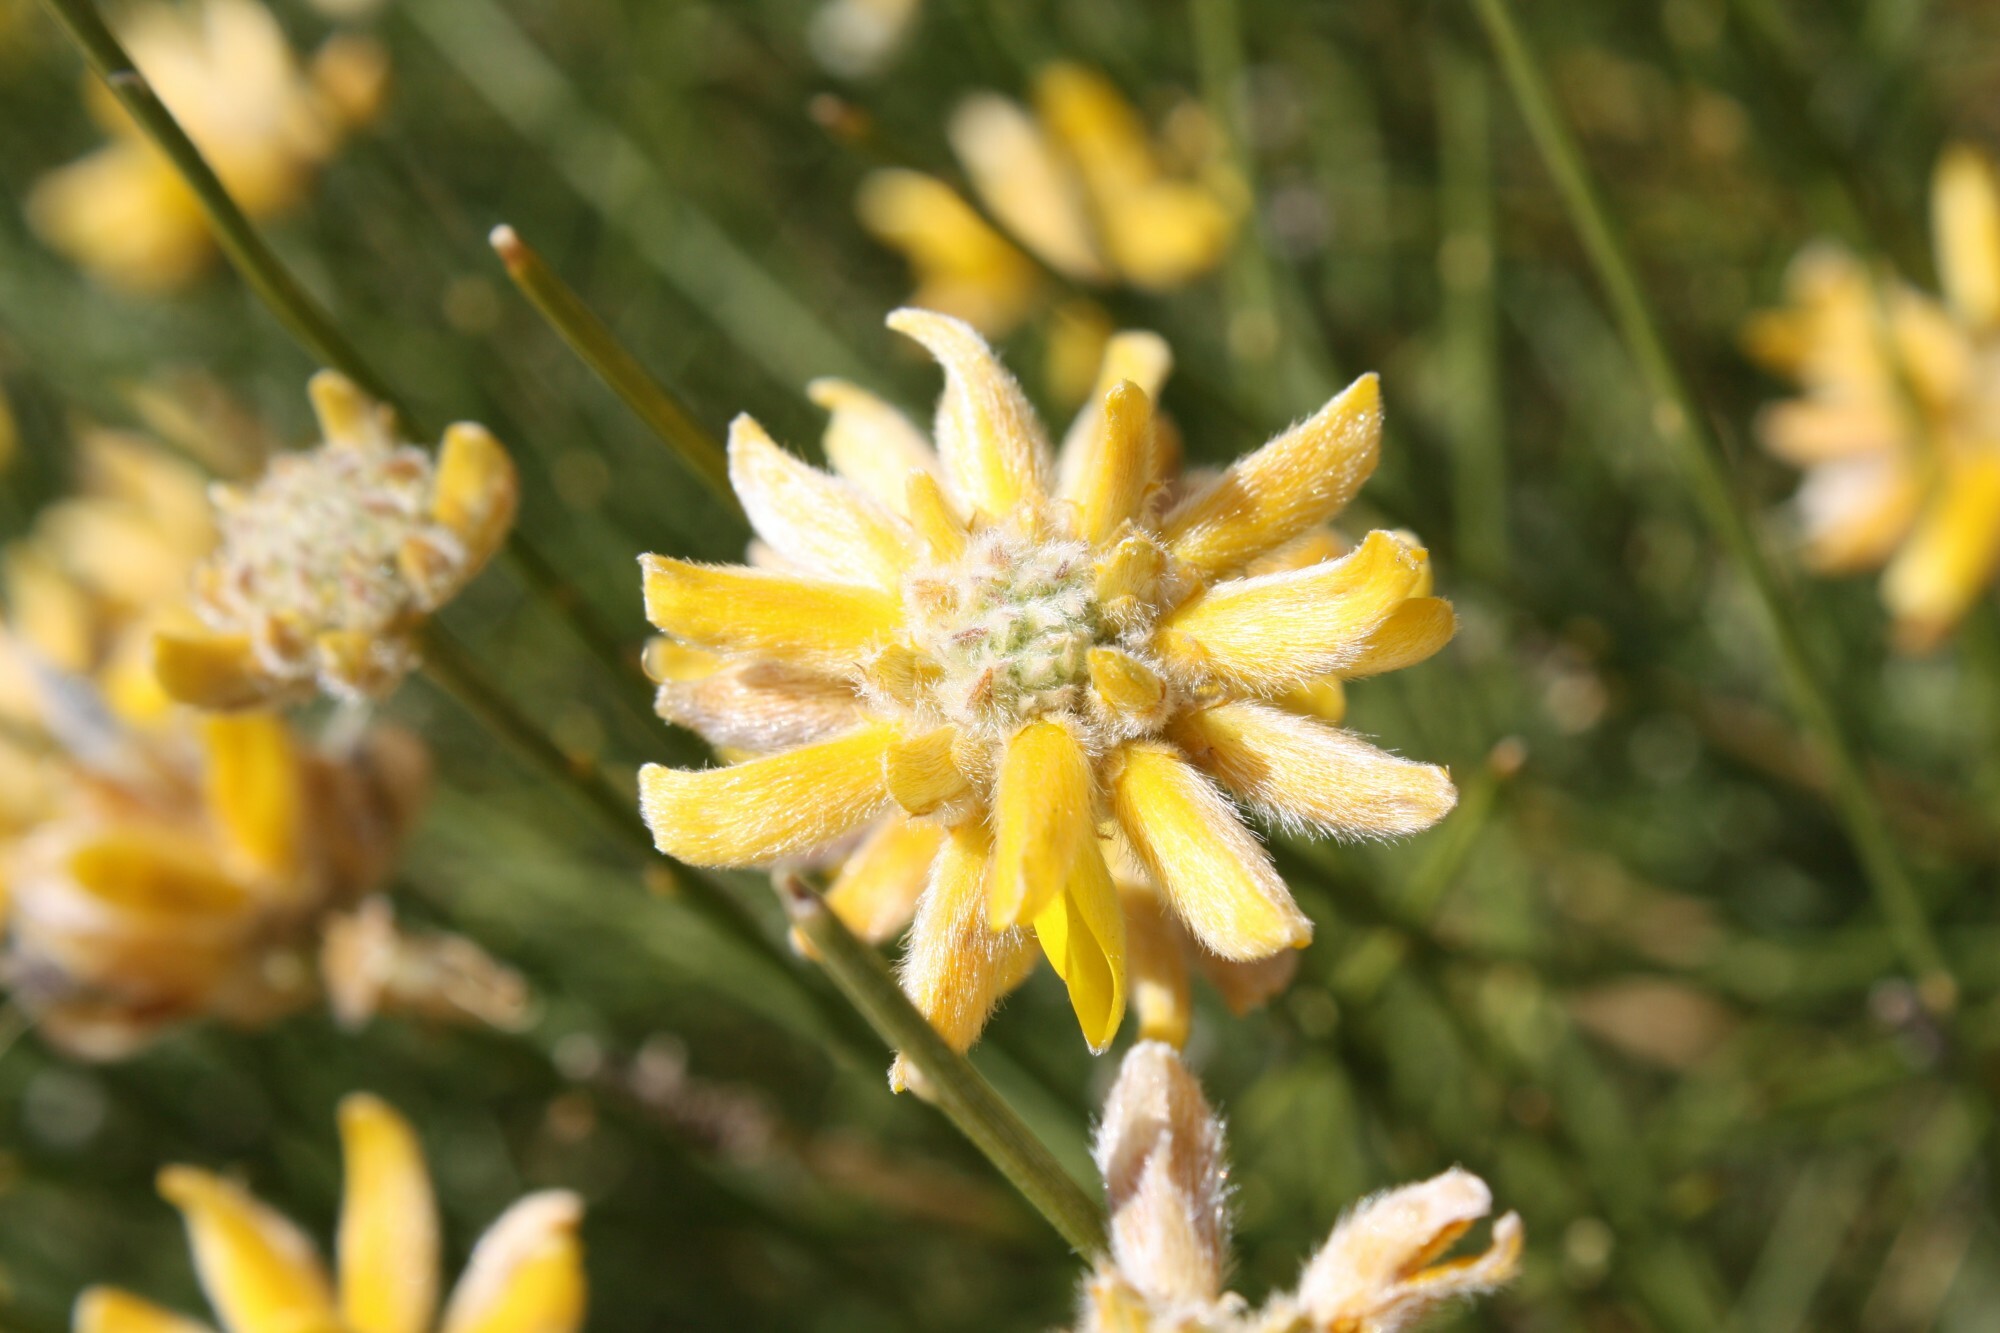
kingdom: Plantae
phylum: Tracheophyta
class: Magnoliopsida
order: Fabales
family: Fabaceae
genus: Genista
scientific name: Genista umbellata
